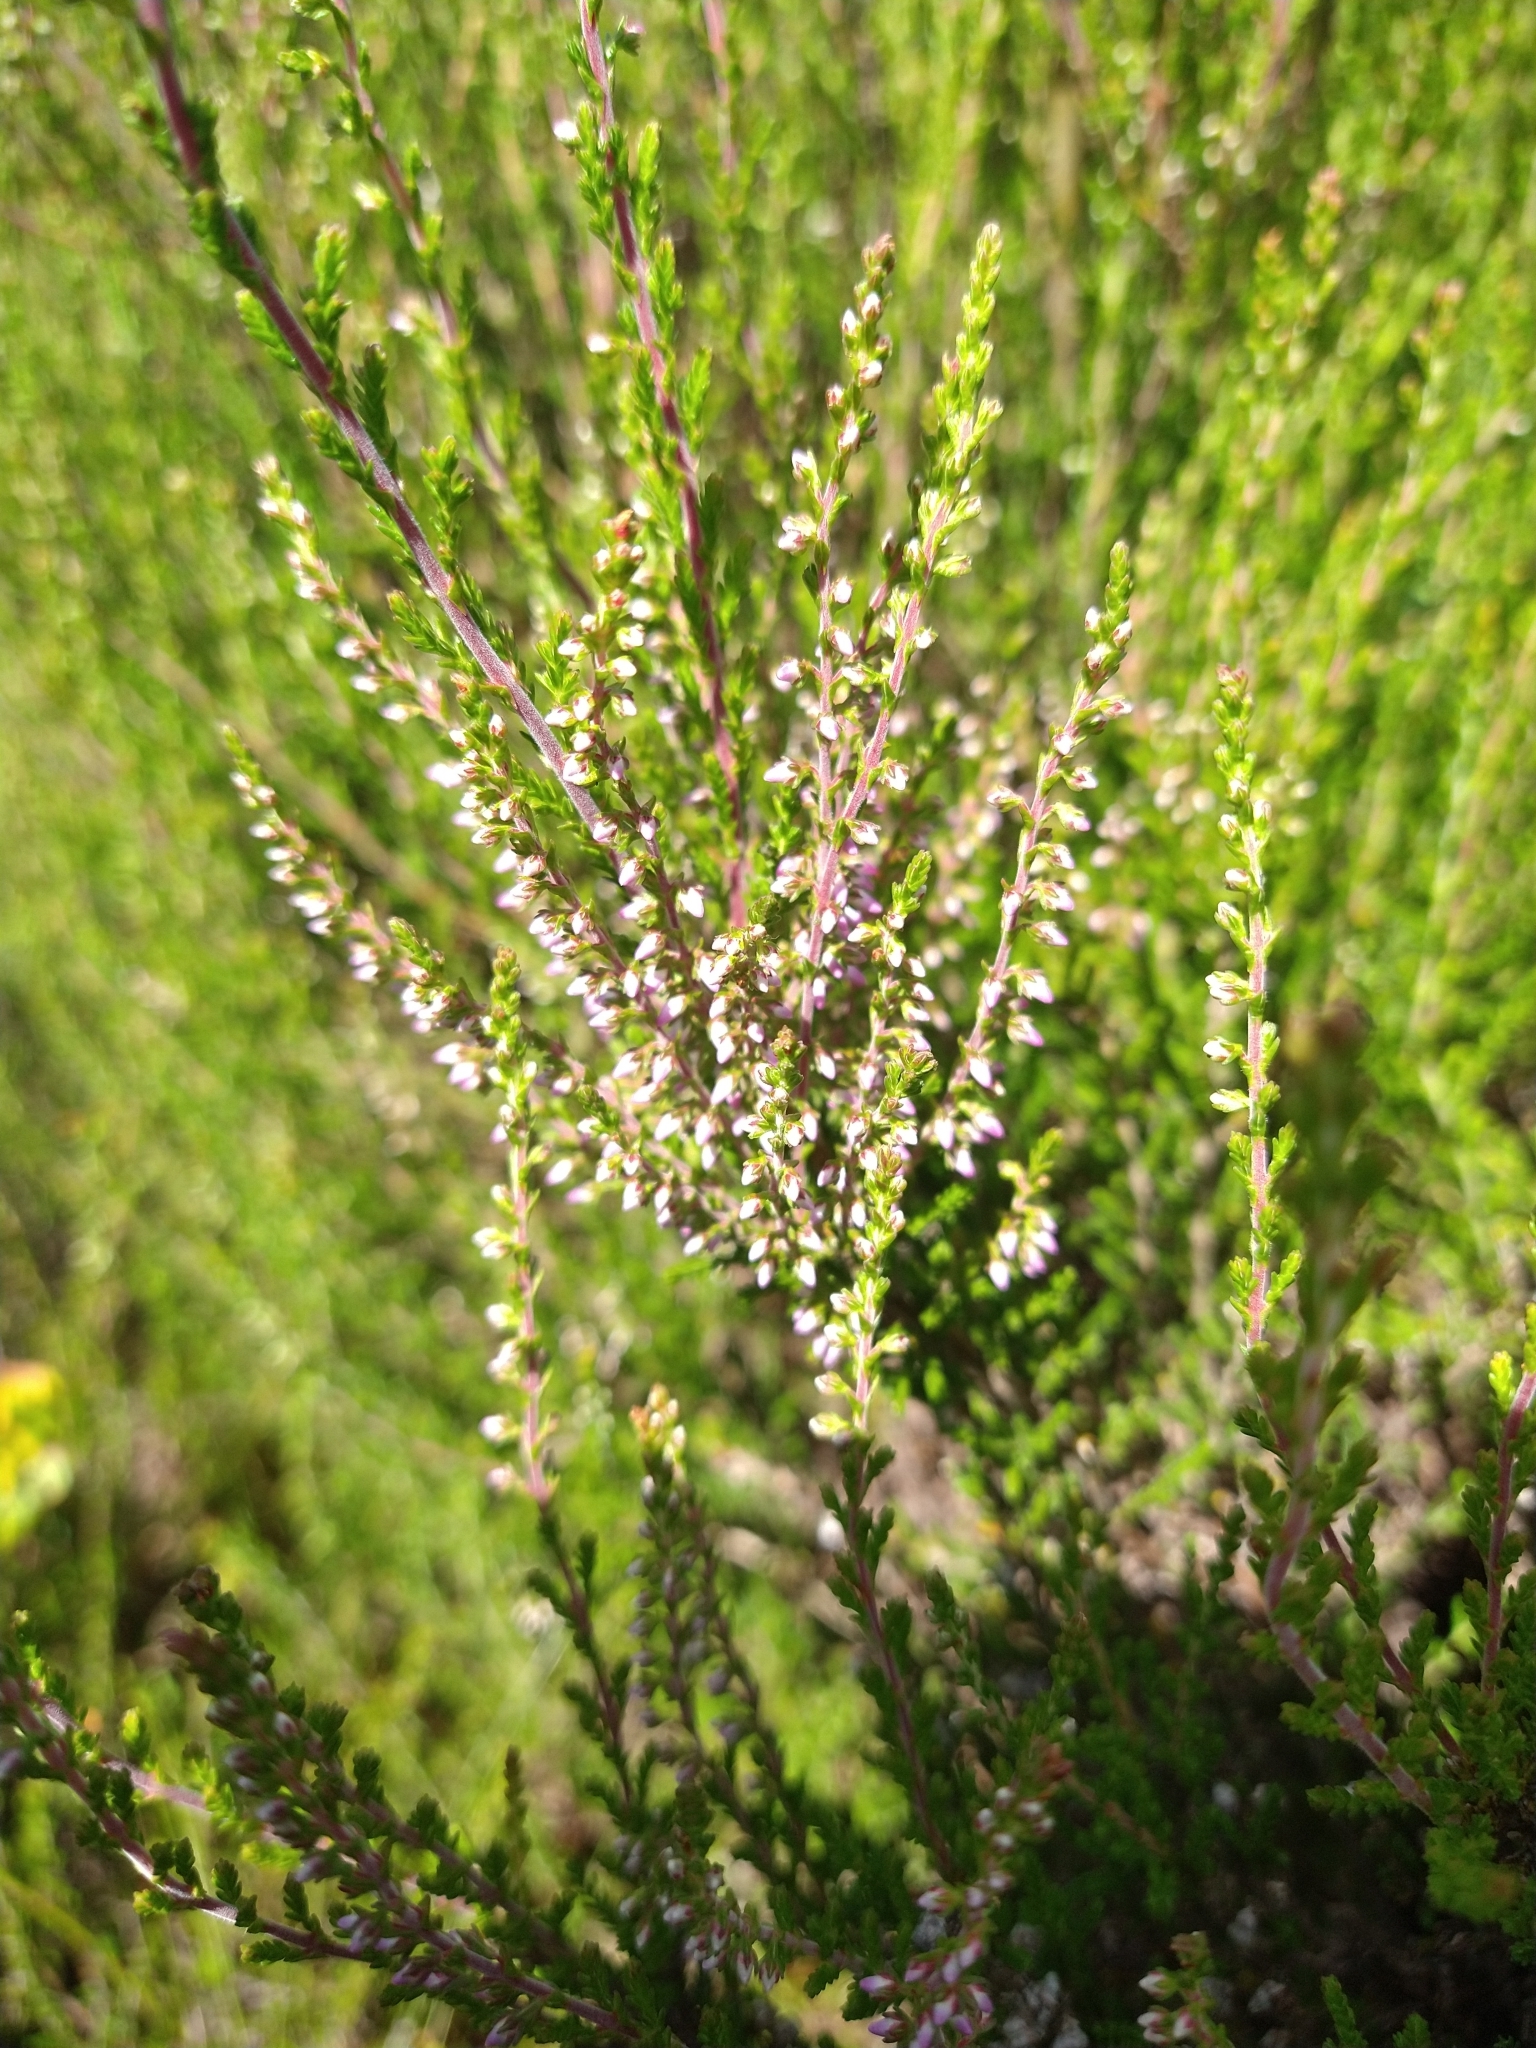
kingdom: Plantae
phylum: Tracheophyta
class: Magnoliopsida
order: Ericales
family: Ericaceae
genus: Calluna
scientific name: Calluna vulgaris
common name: Heather
